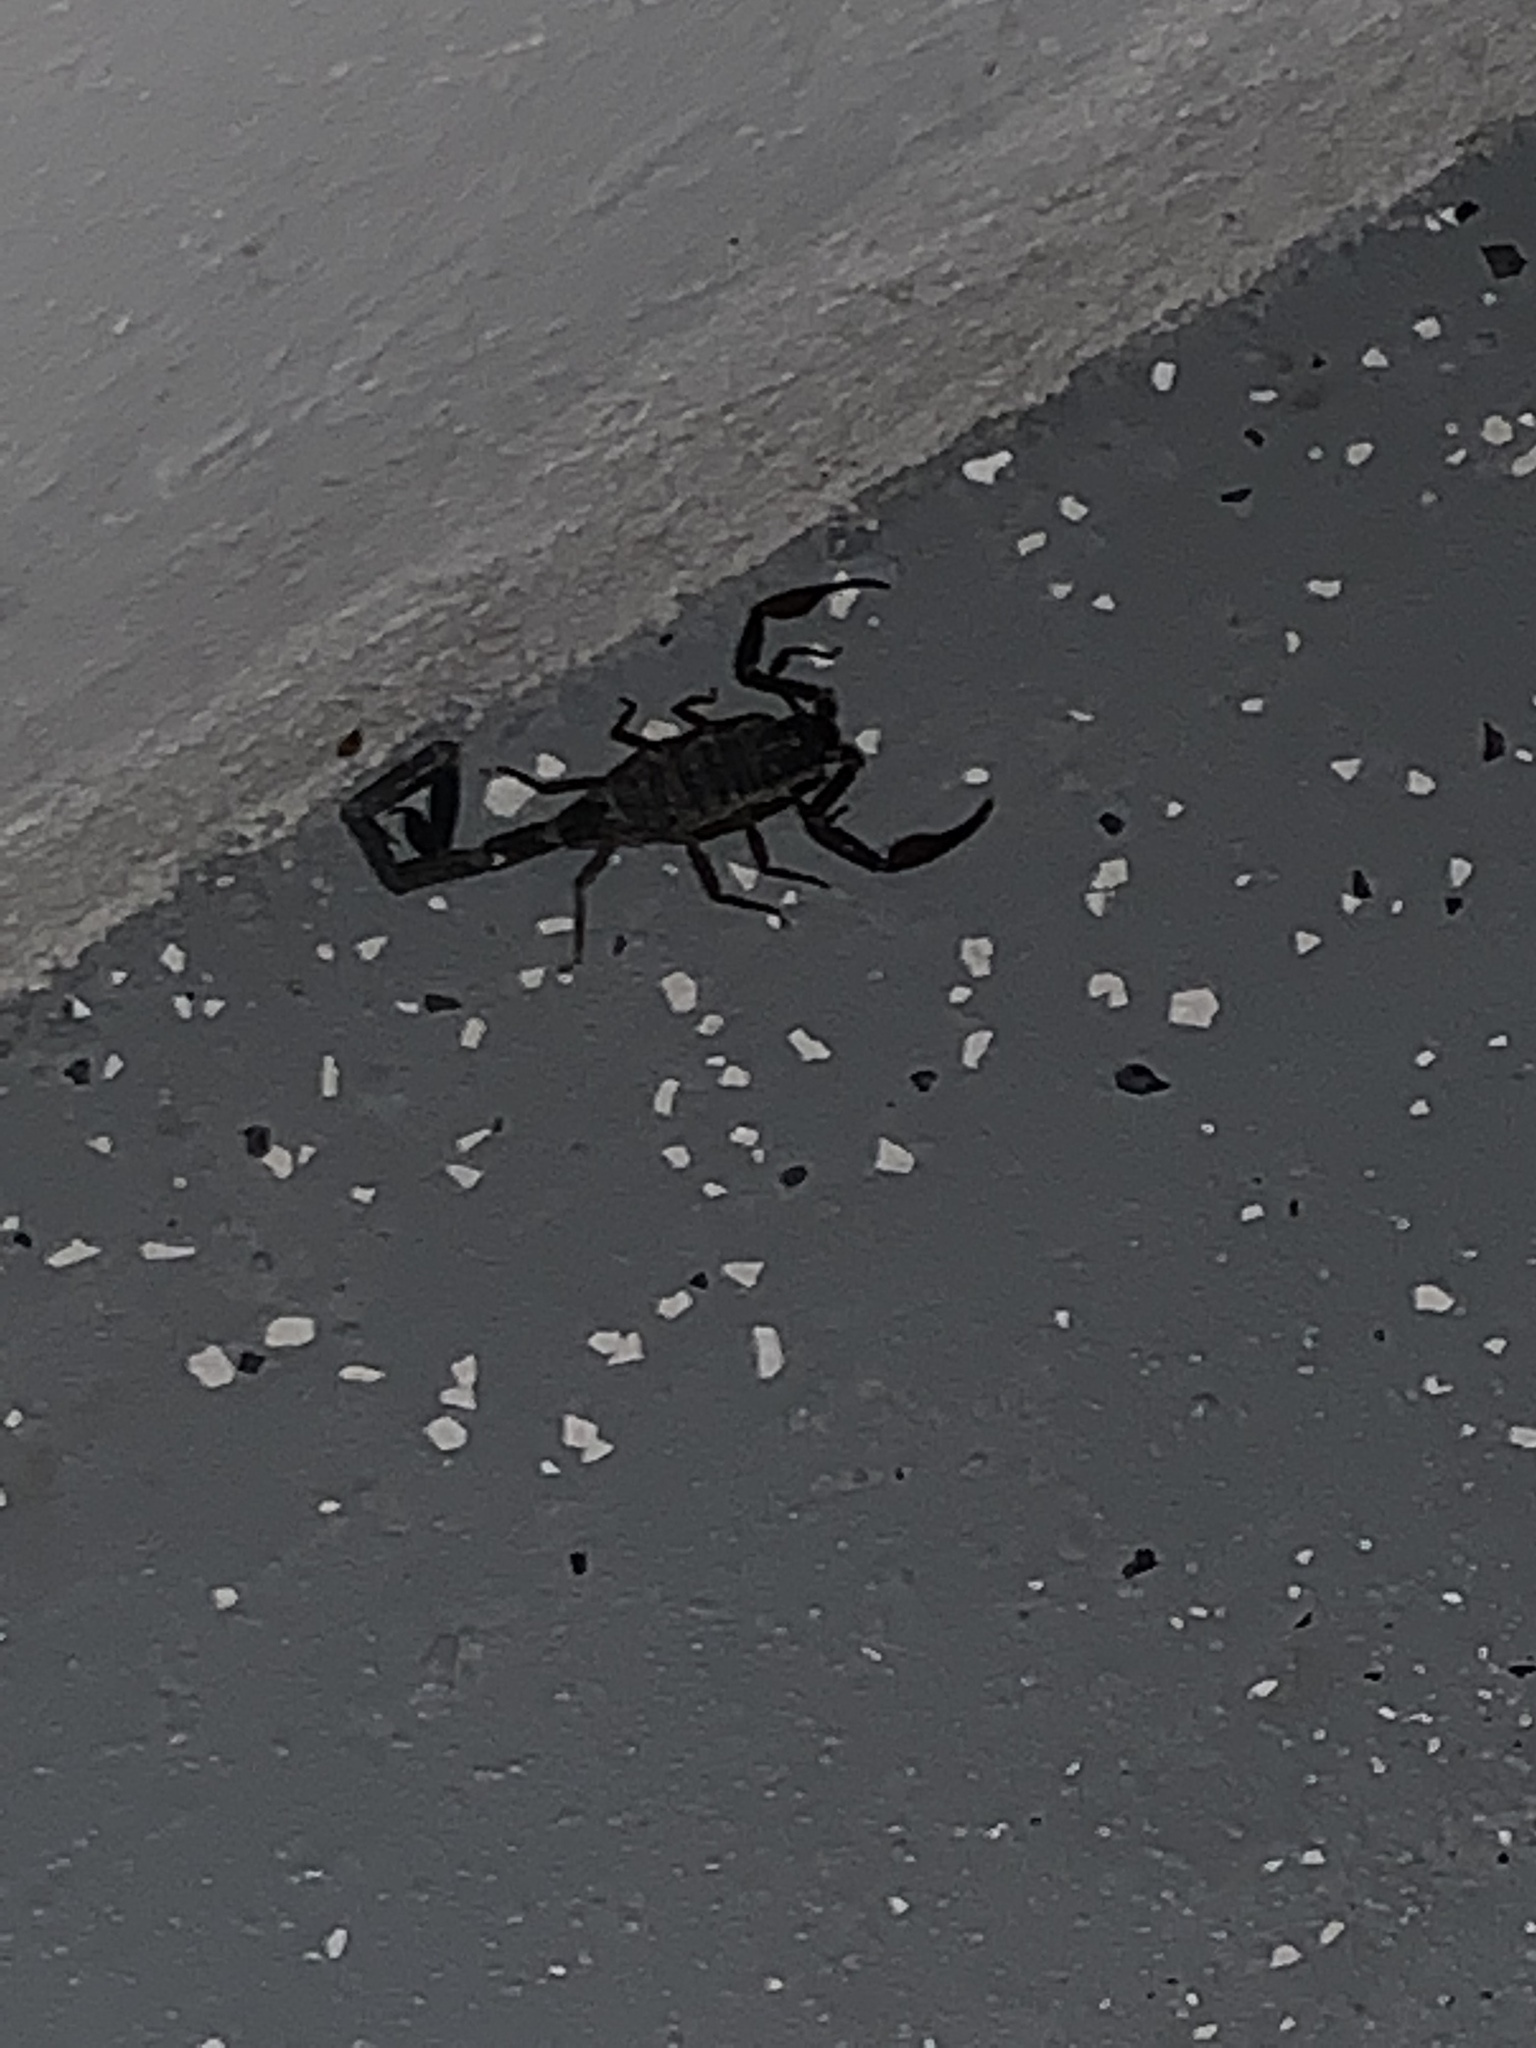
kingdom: Animalia
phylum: Arthropoda
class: Arachnida
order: Scorpiones
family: Buthidae
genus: Centruroides
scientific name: Centruroides gracilis
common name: Scorpions
